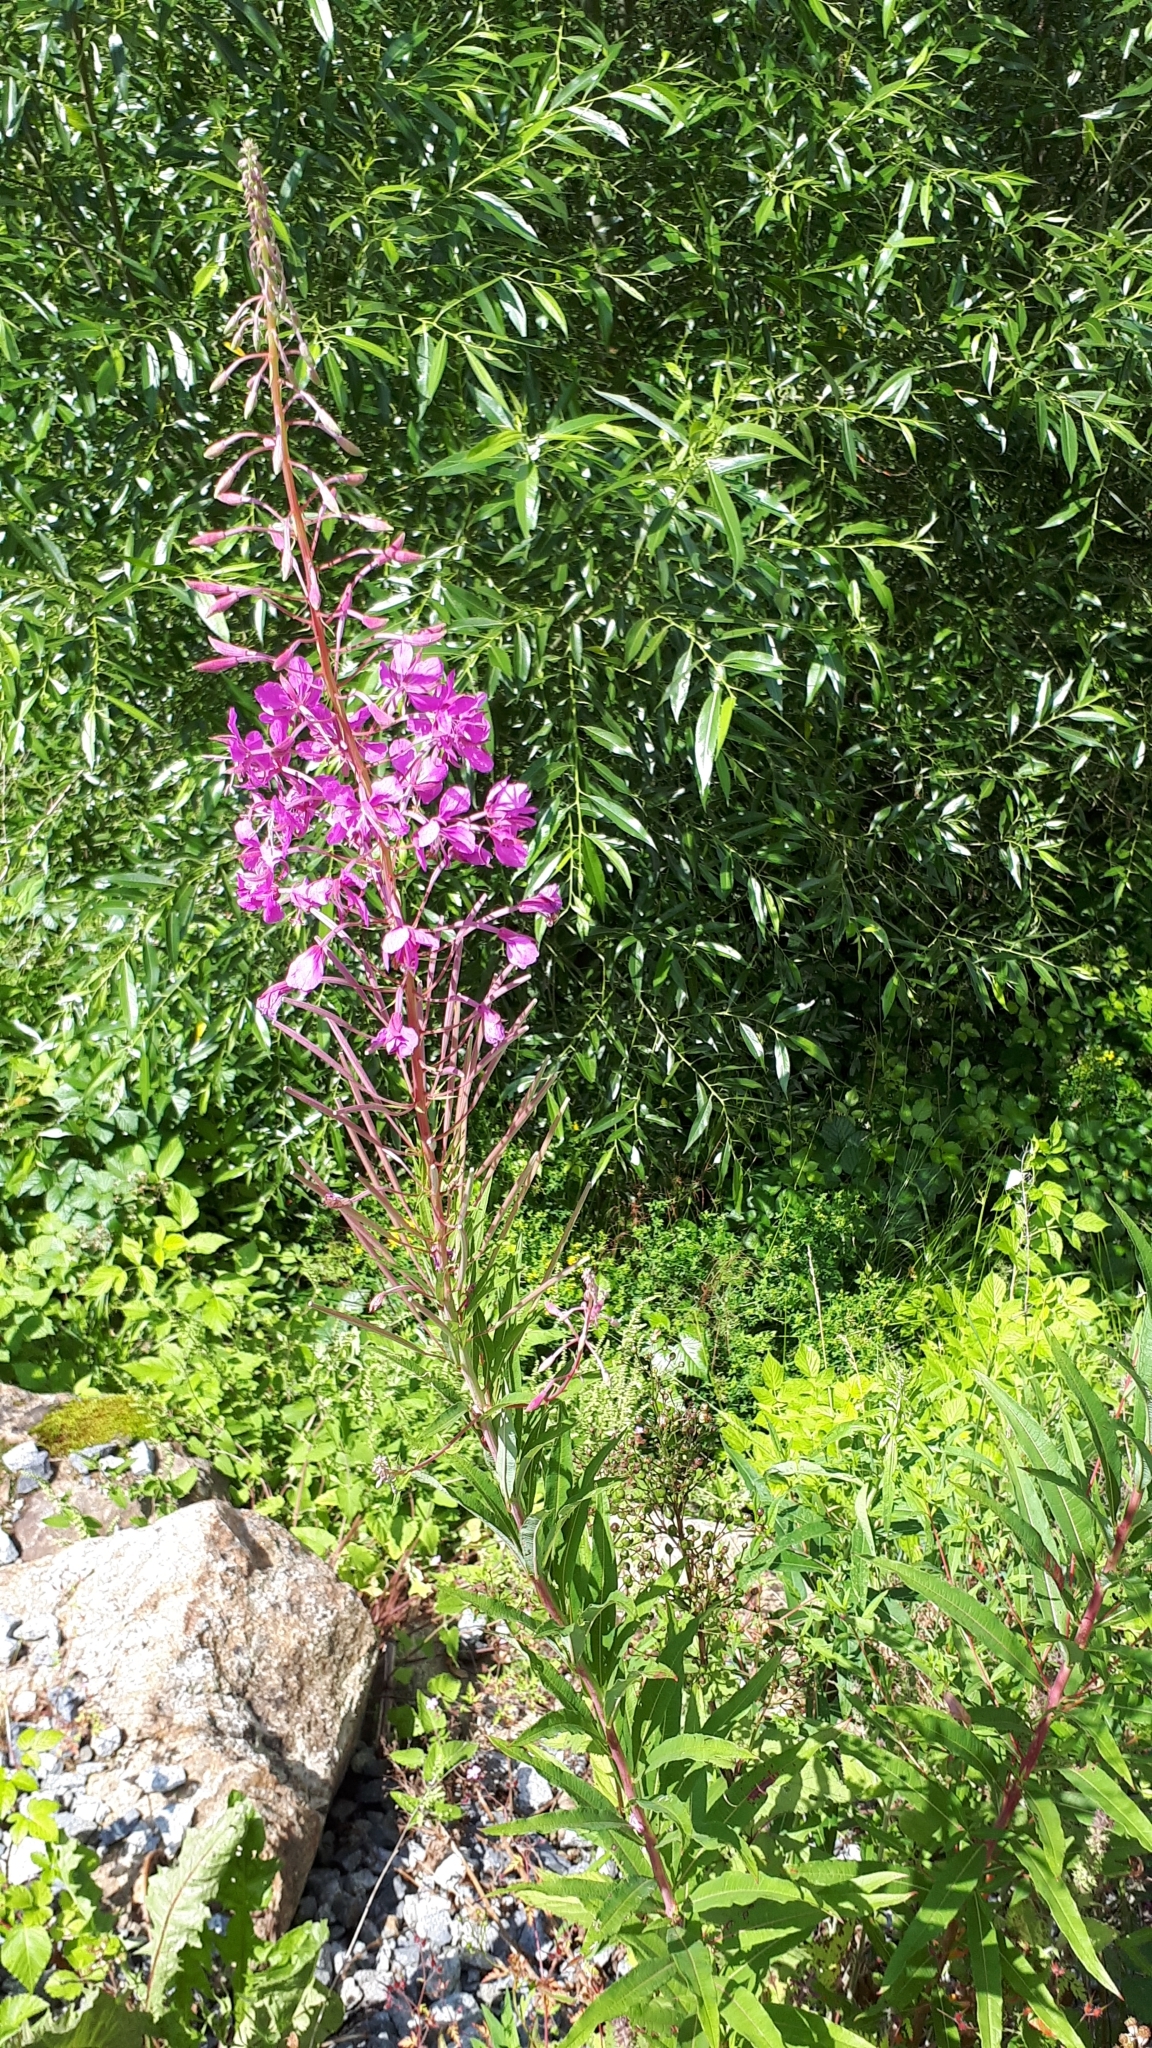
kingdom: Plantae
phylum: Tracheophyta
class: Magnoliopsida
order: Myrtales
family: Onagraceae
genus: Chamaenerion
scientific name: Chamaenerion angustifolium
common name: Fireweed
